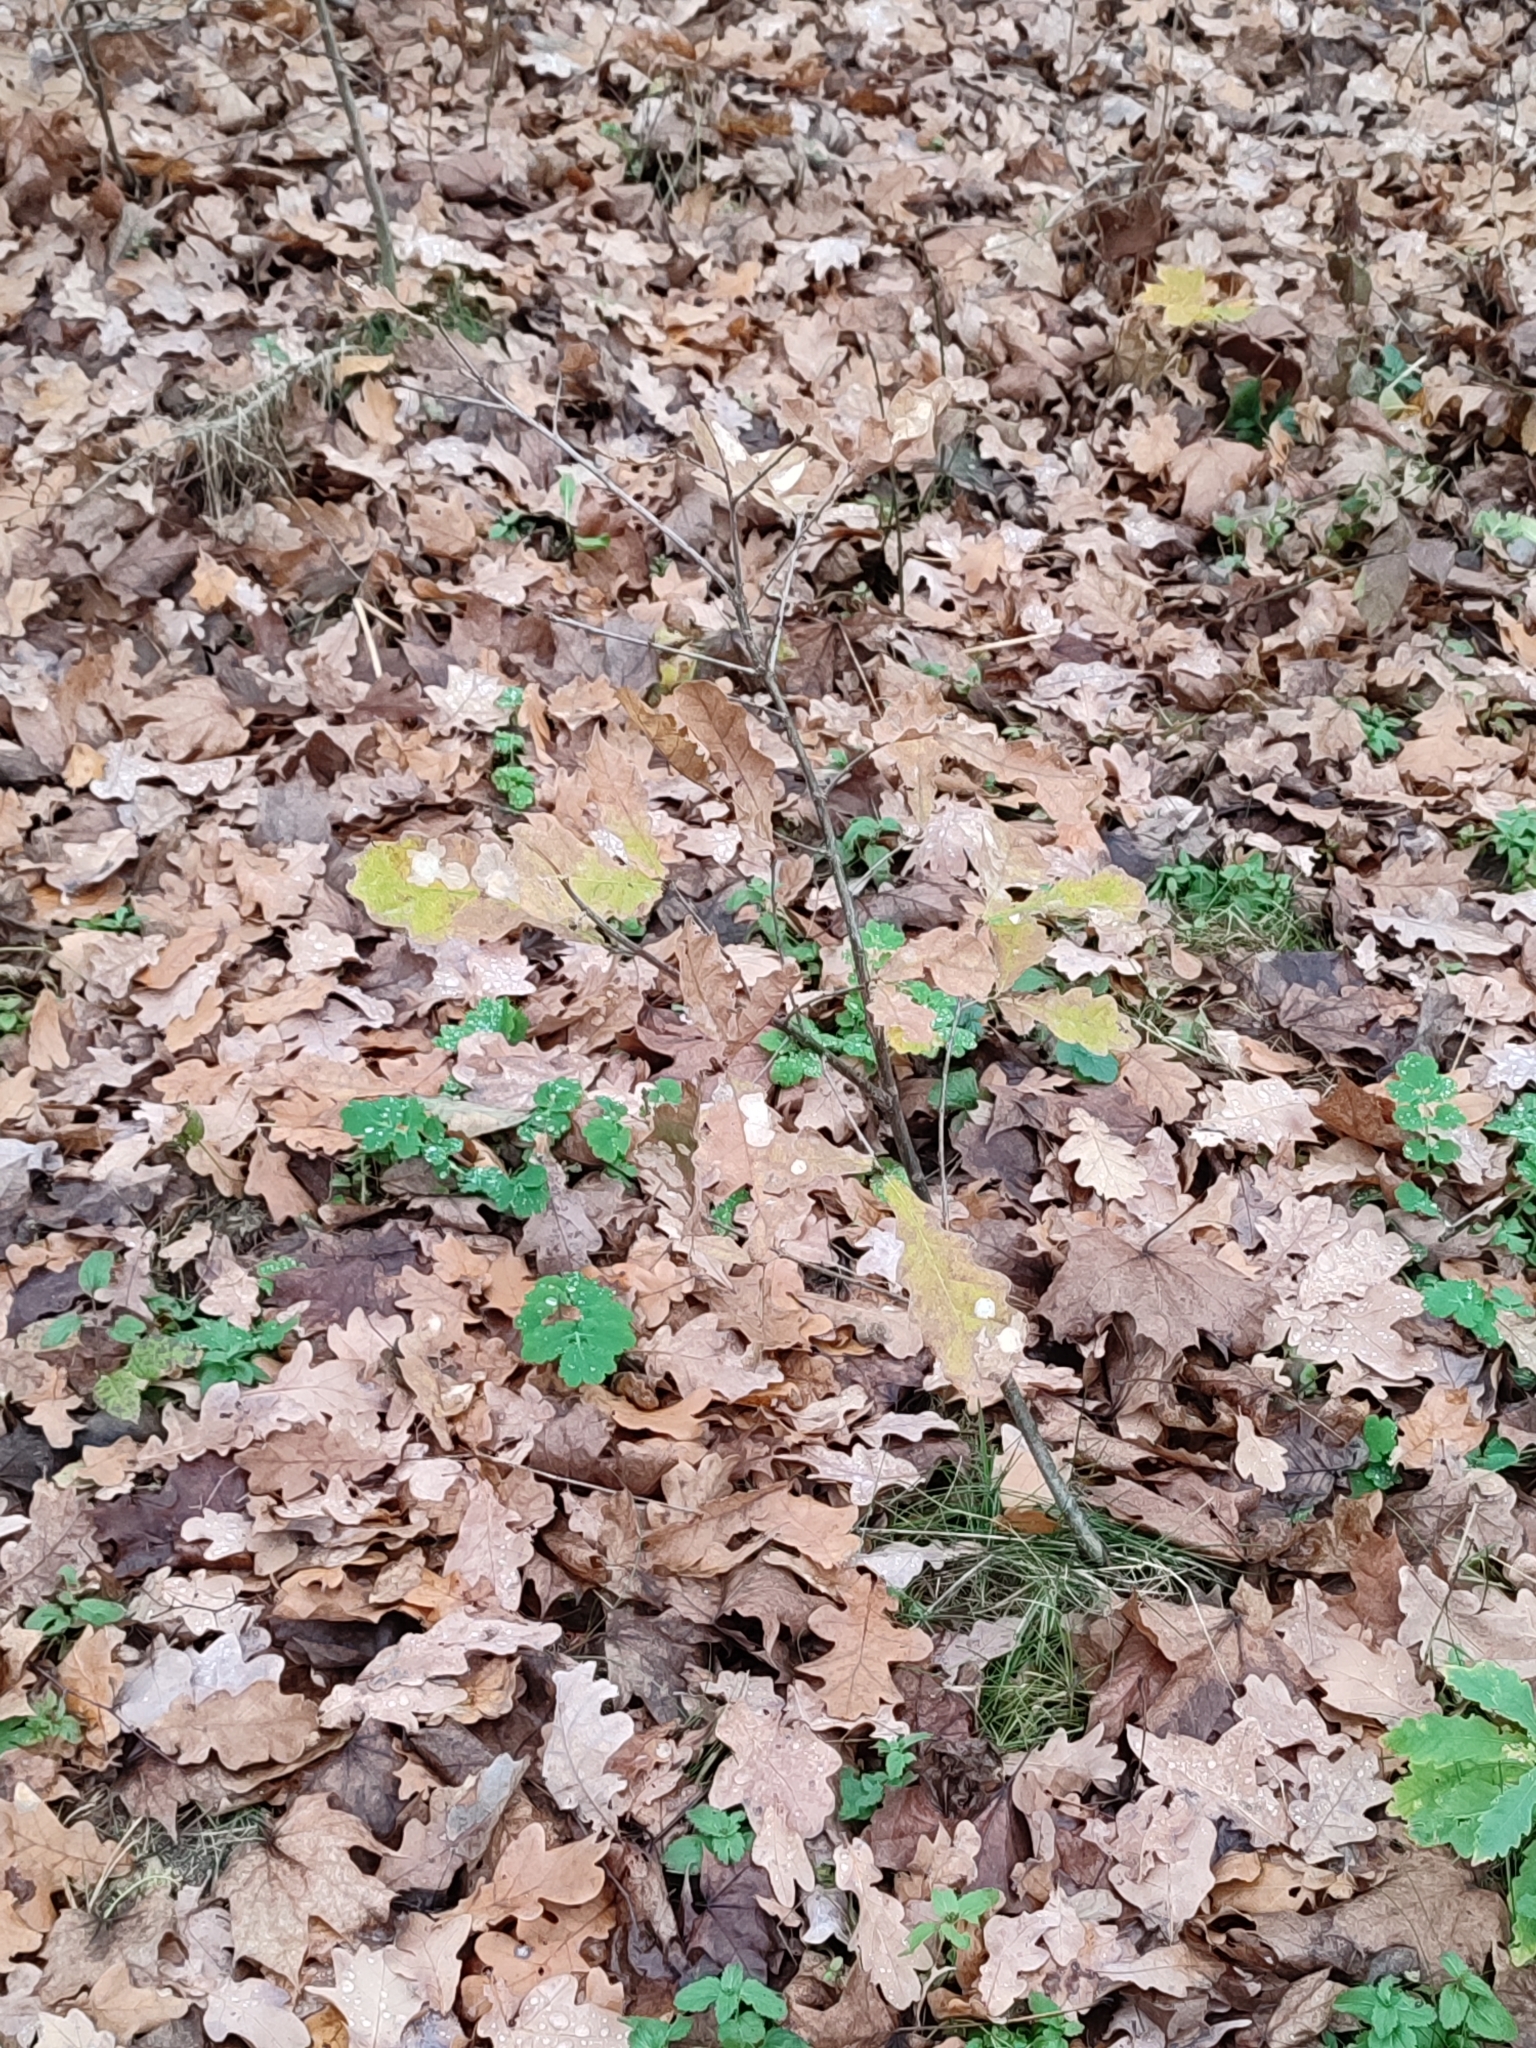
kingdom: Plantae
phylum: Tracheophyta
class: Magnoliopsida
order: Fagales
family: Fagaceae
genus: Quercus
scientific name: Quercus robur
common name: Pedunculate oak
